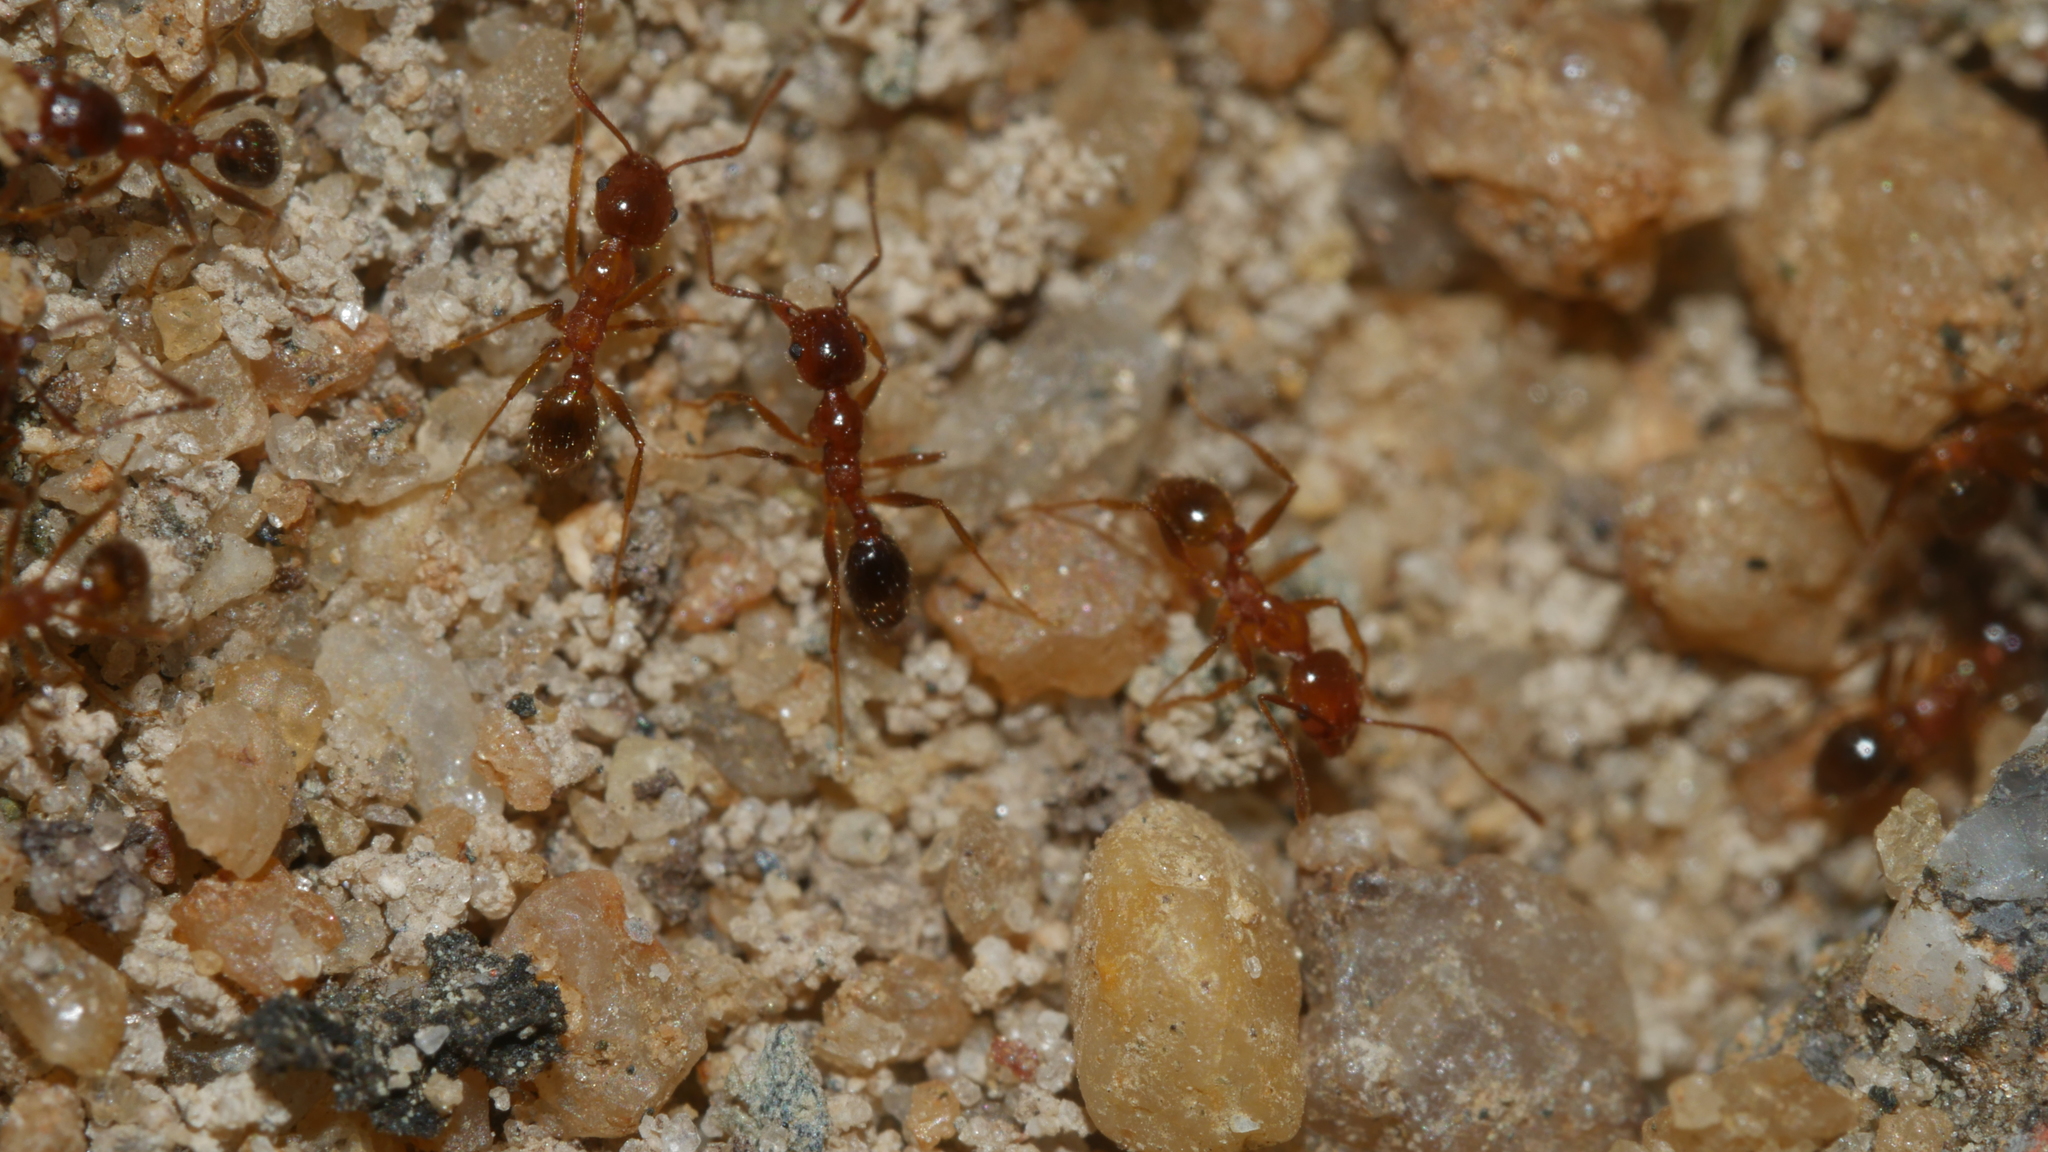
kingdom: Animalia
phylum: Arthropoda
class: Insecta
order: Hymenoptera
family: Formicidae
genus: Pheidole
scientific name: Pheidole dentata
